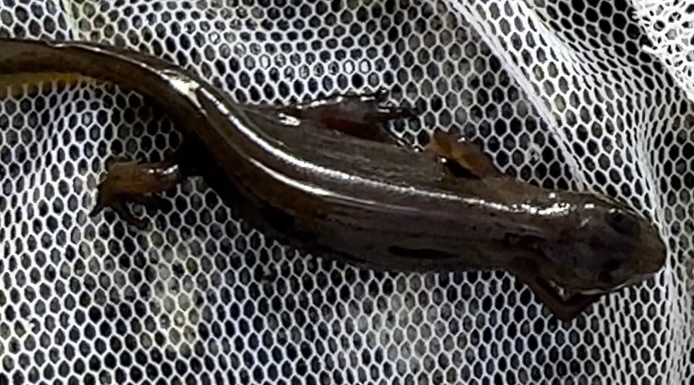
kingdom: Animalia
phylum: Chordata
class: Amphibia
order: Caudata
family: Salamandridae
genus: Lissotriton
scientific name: Lissotriton vulgaris
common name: Smooth newt
